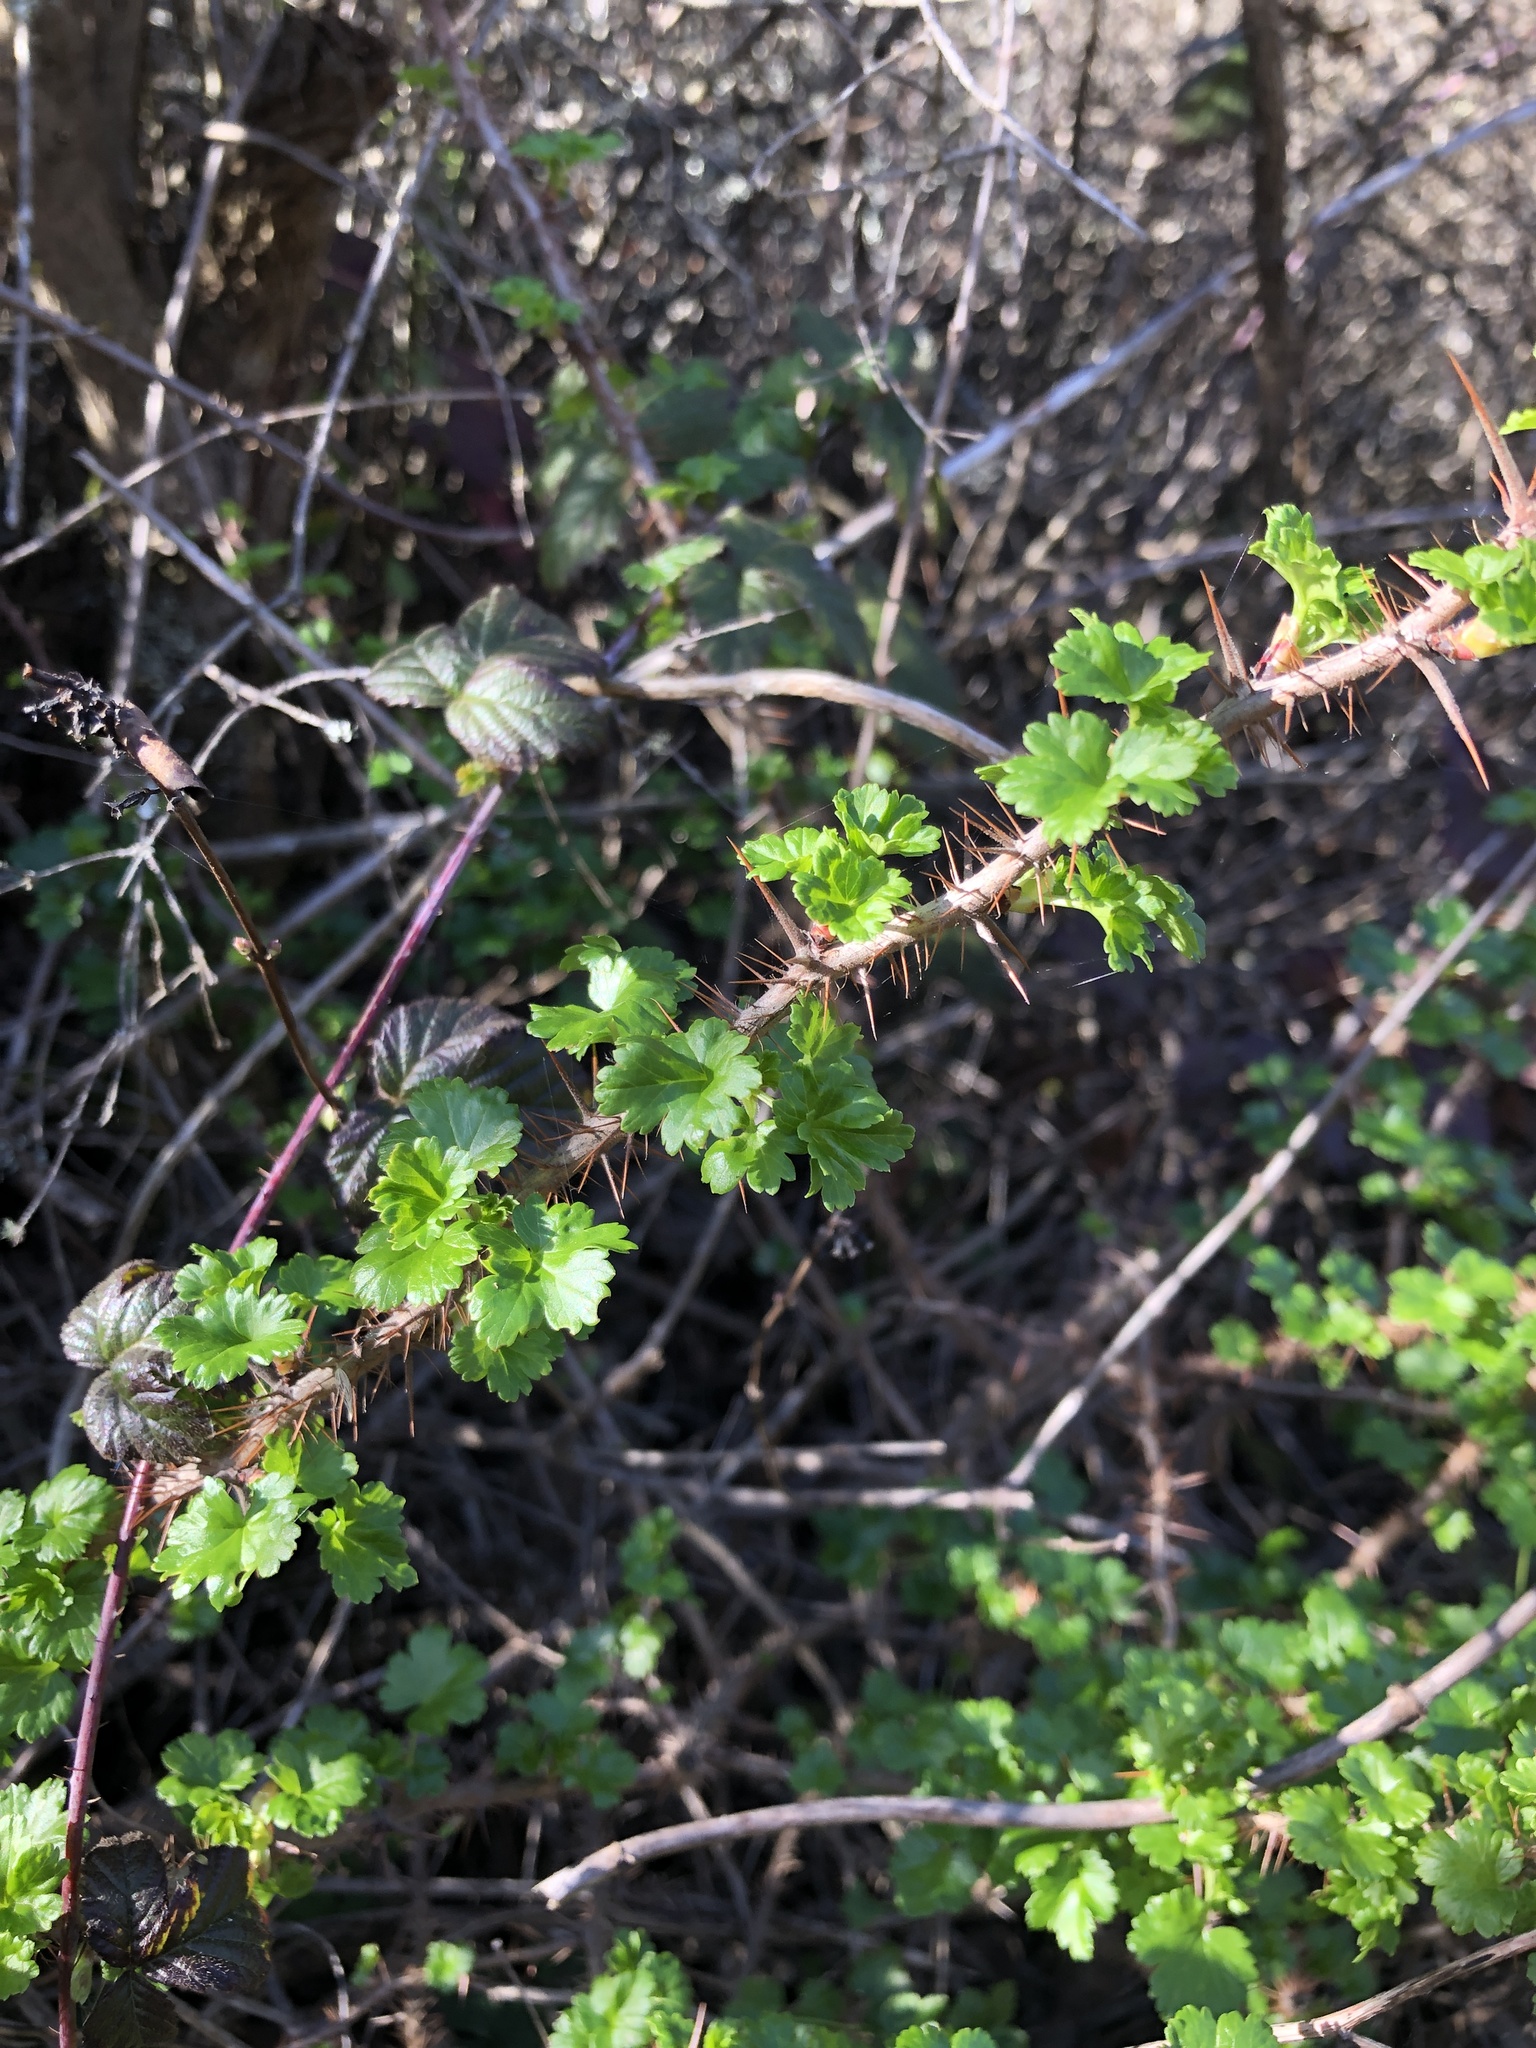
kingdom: Plantae
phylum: Tracheophyta
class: Magnoliopsida
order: Saxifragales
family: Grossulariaceae
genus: Ribes
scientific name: Ribes menziesii
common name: Canyon gooseberry
